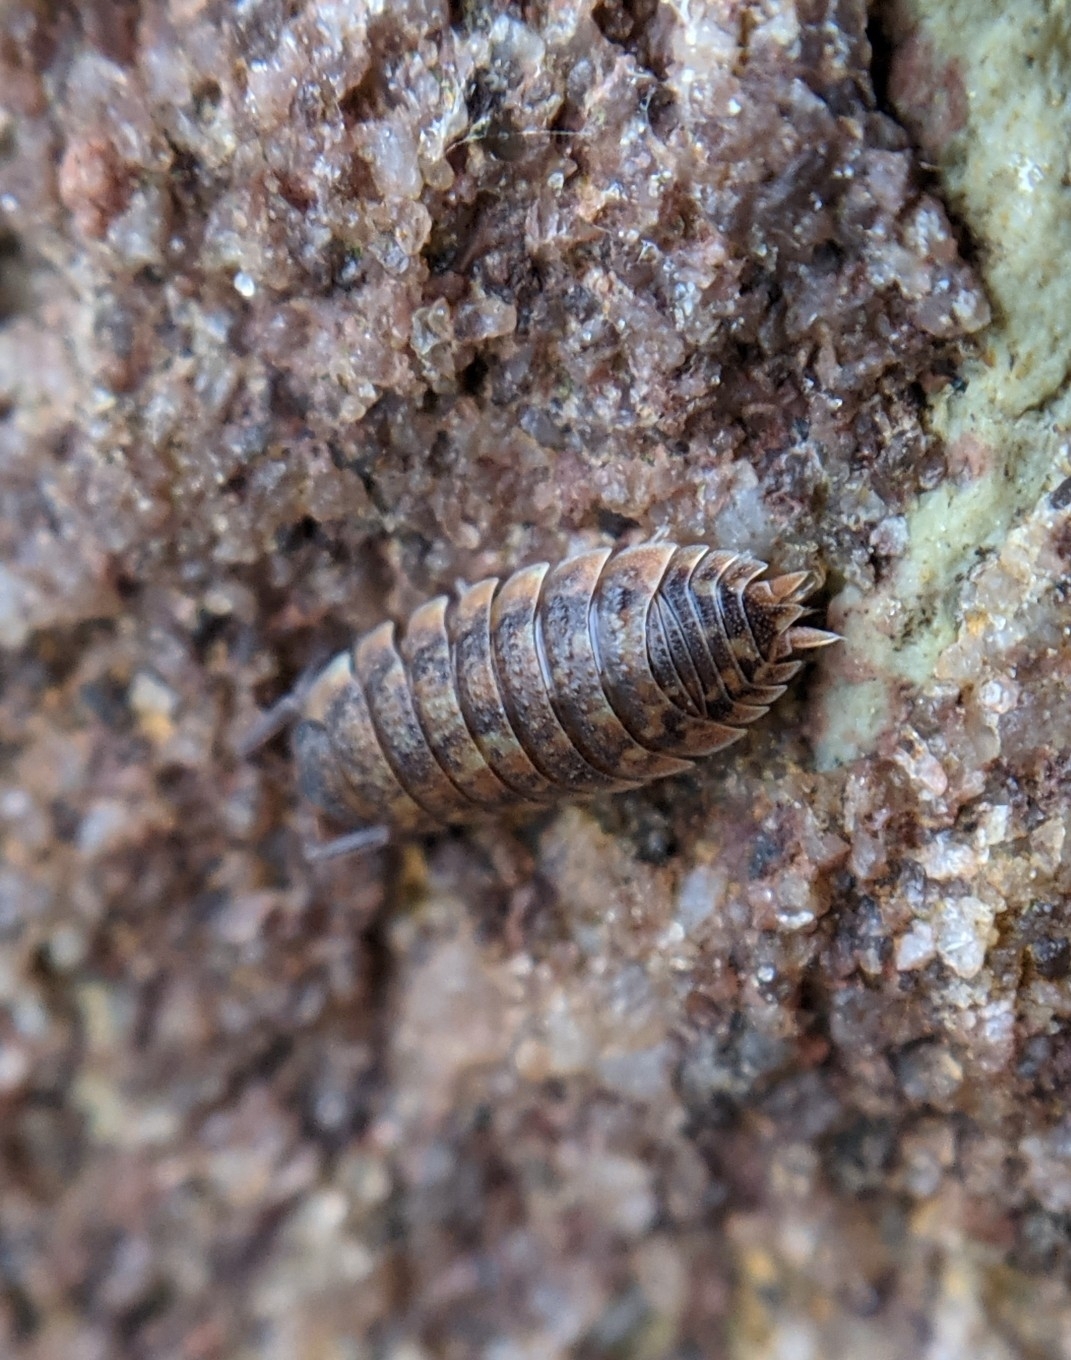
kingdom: Animalia
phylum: Arthropoda
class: Malacostraca
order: Isopoda
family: Porcellionidae
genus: Porcellio
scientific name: Porcellio scaber
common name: Common rough woodlouse
